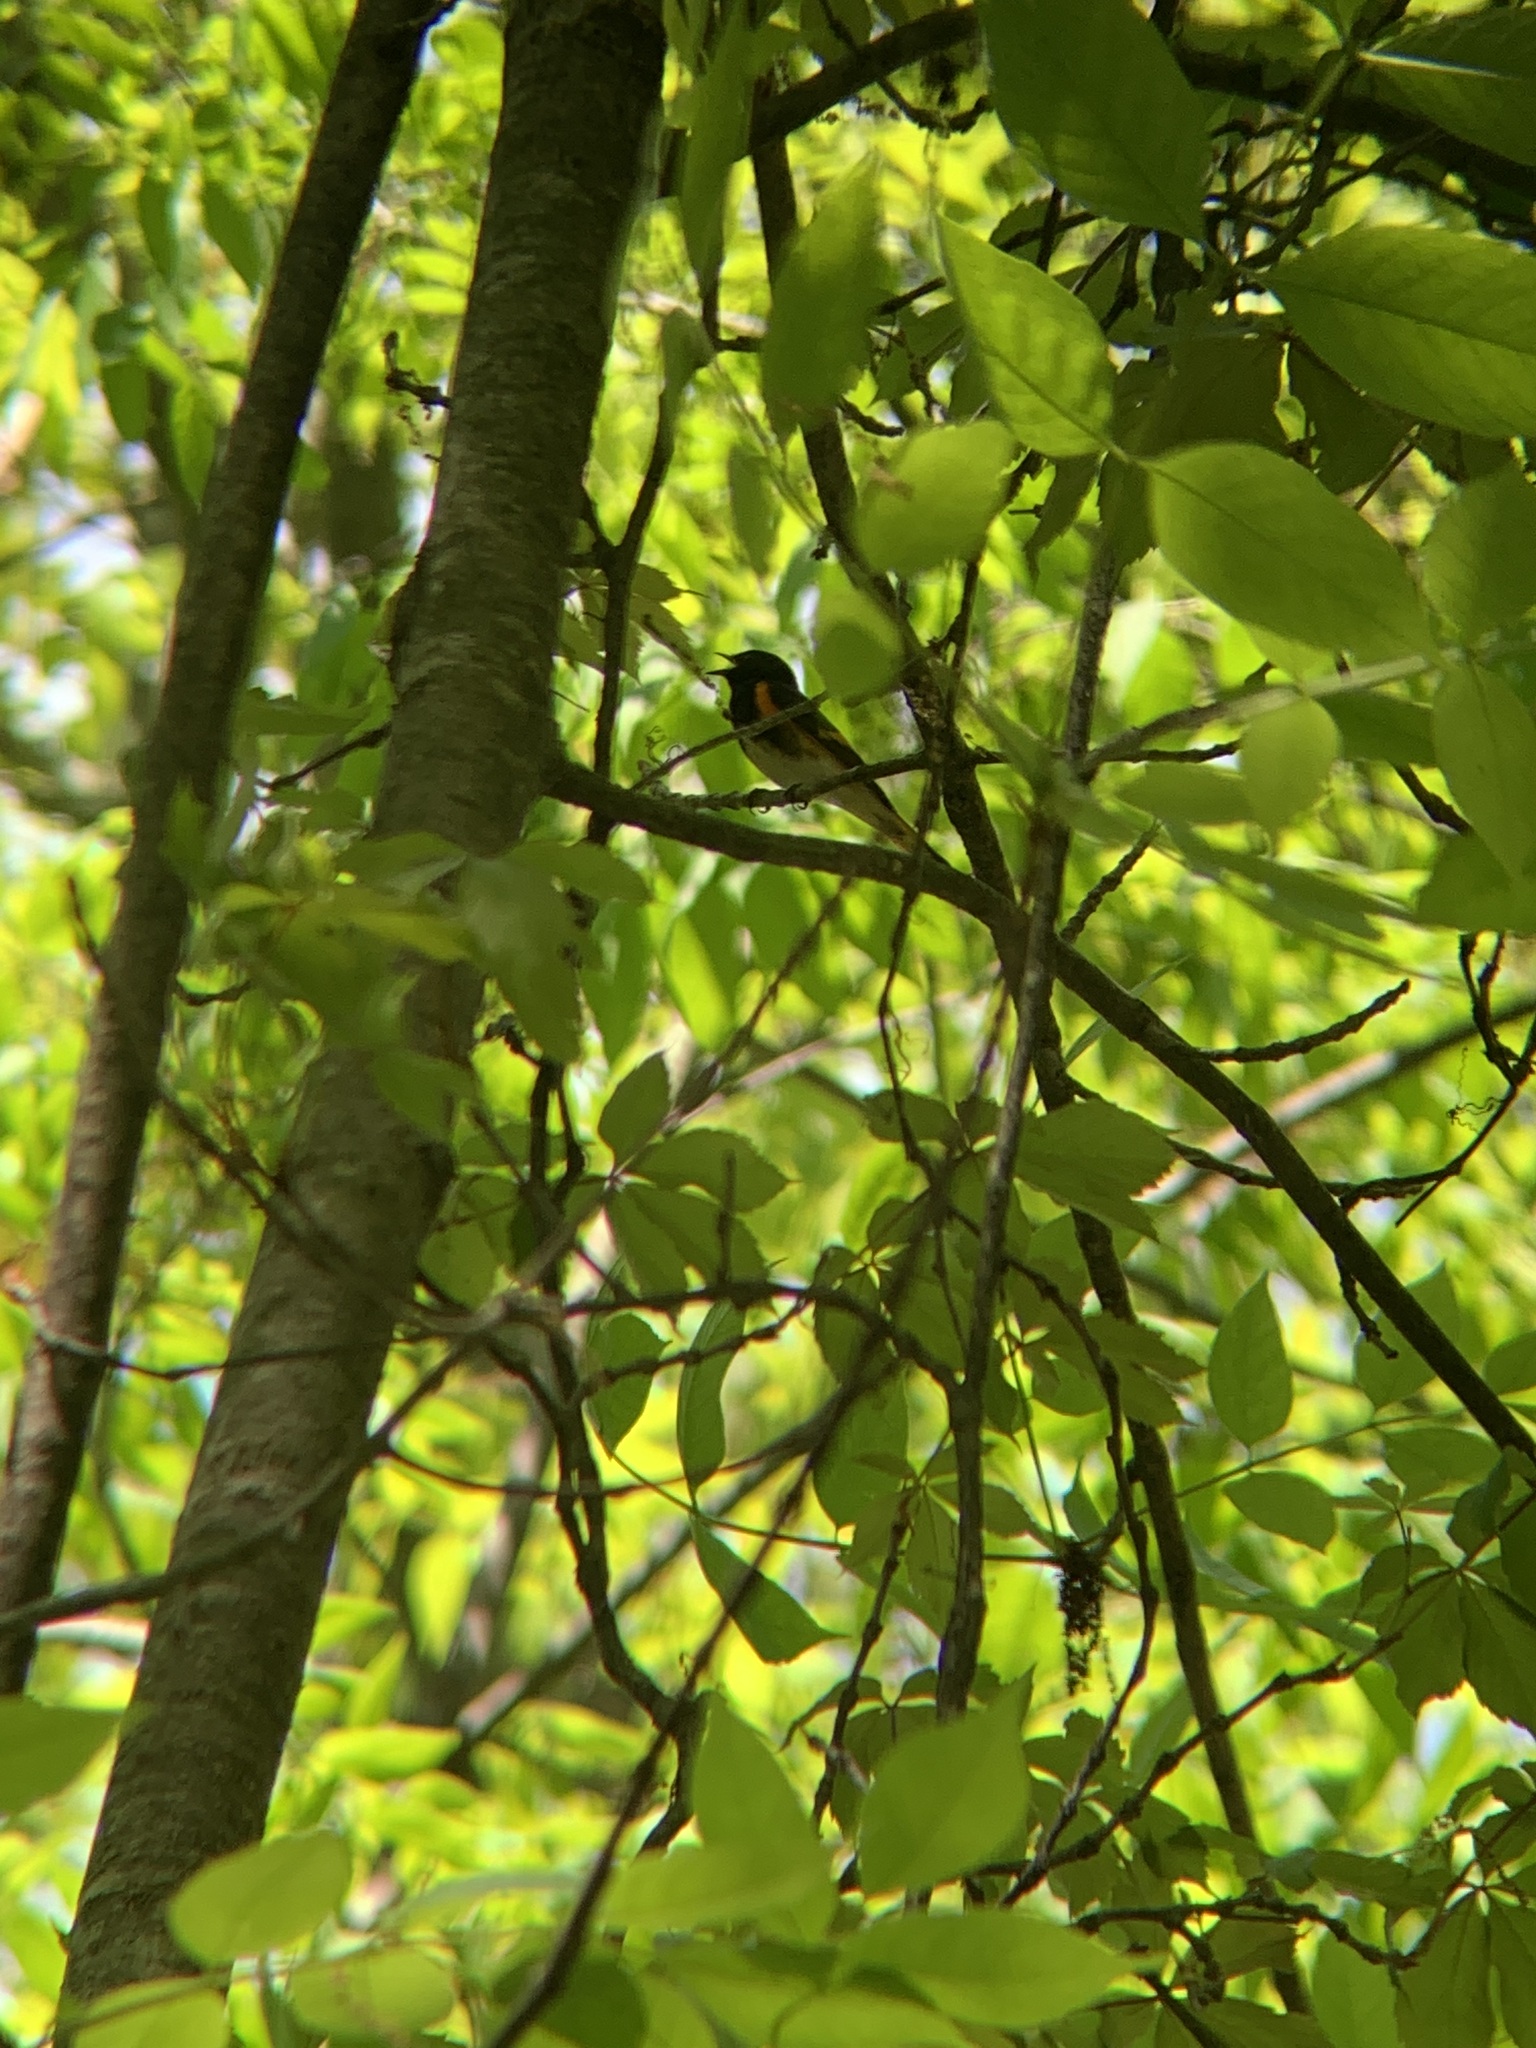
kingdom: Animalia
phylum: Chordata
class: Aves
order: Passeriformes
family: Parulidae
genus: Setophaga
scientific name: Setophaga ruticilla
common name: American redstart
